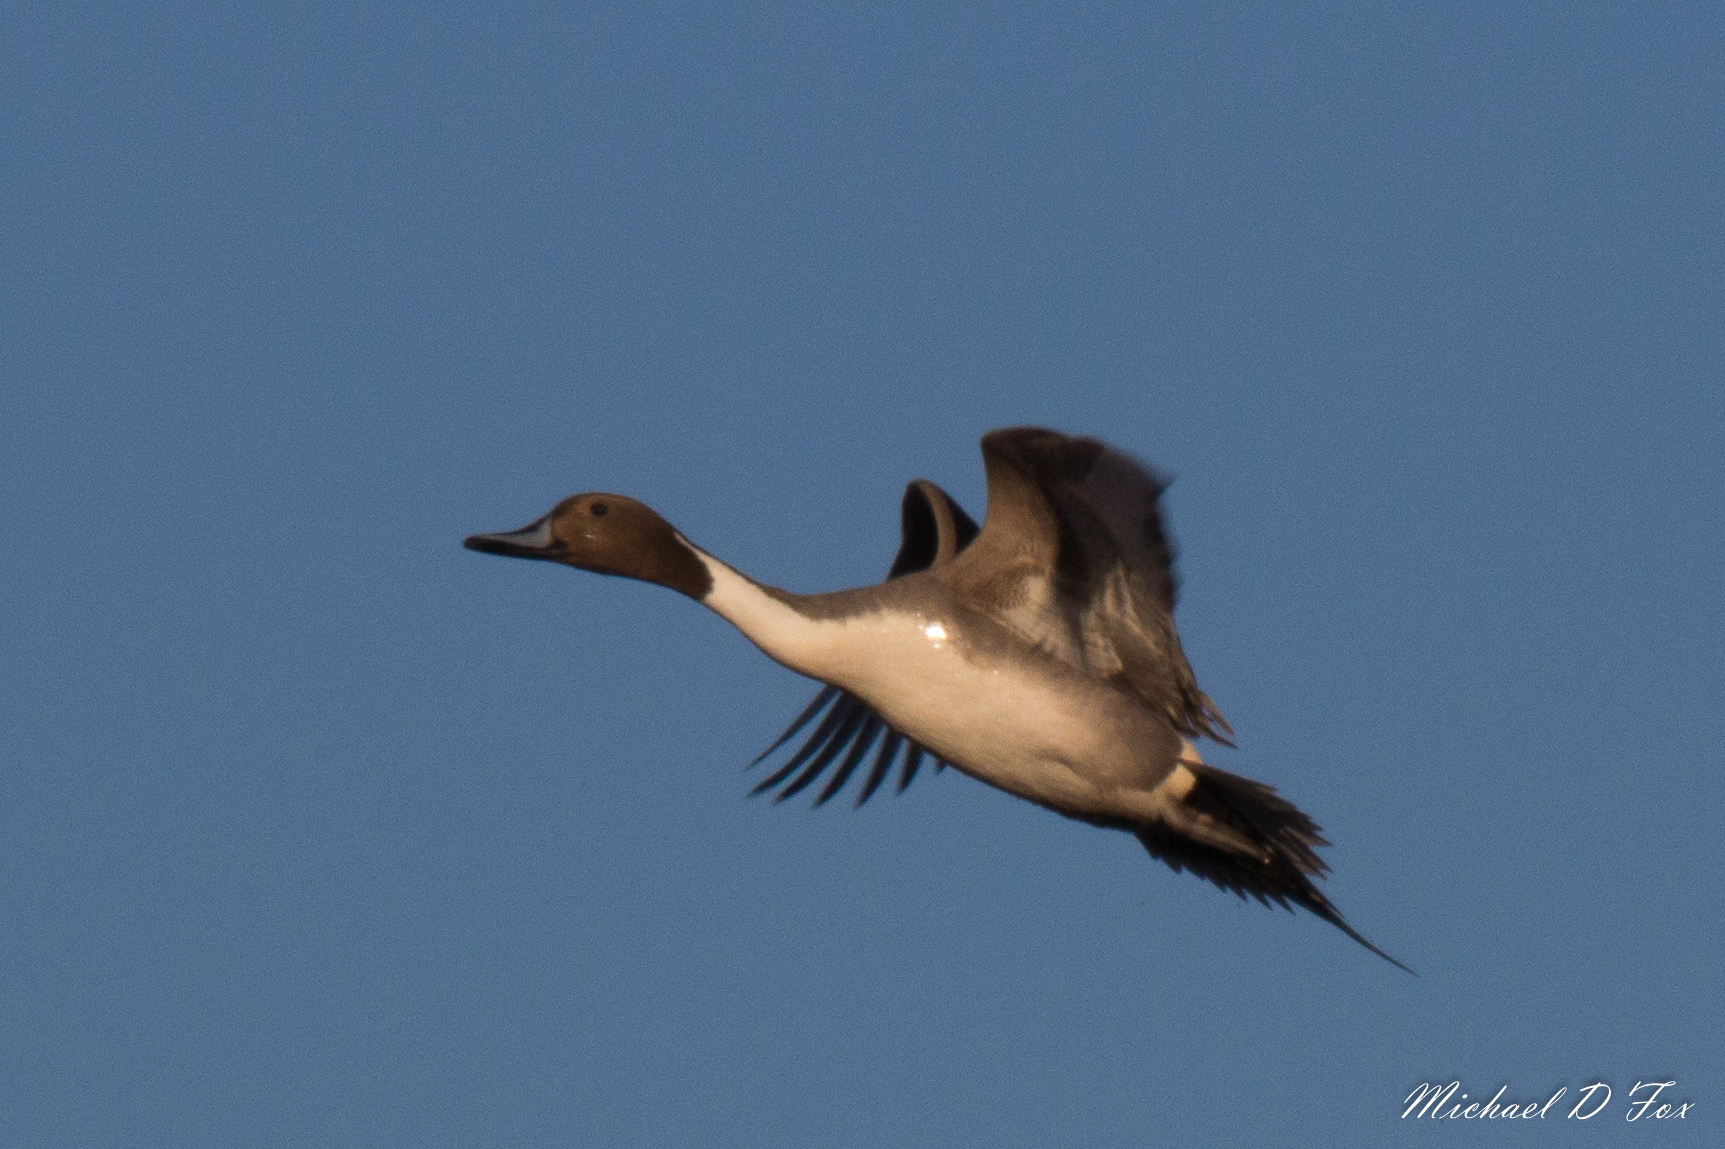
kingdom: Animalia
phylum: Chordata
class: Aves
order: Anseriformes
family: Anatidae
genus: Anas
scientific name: Anas acuta
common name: Northern pintail
